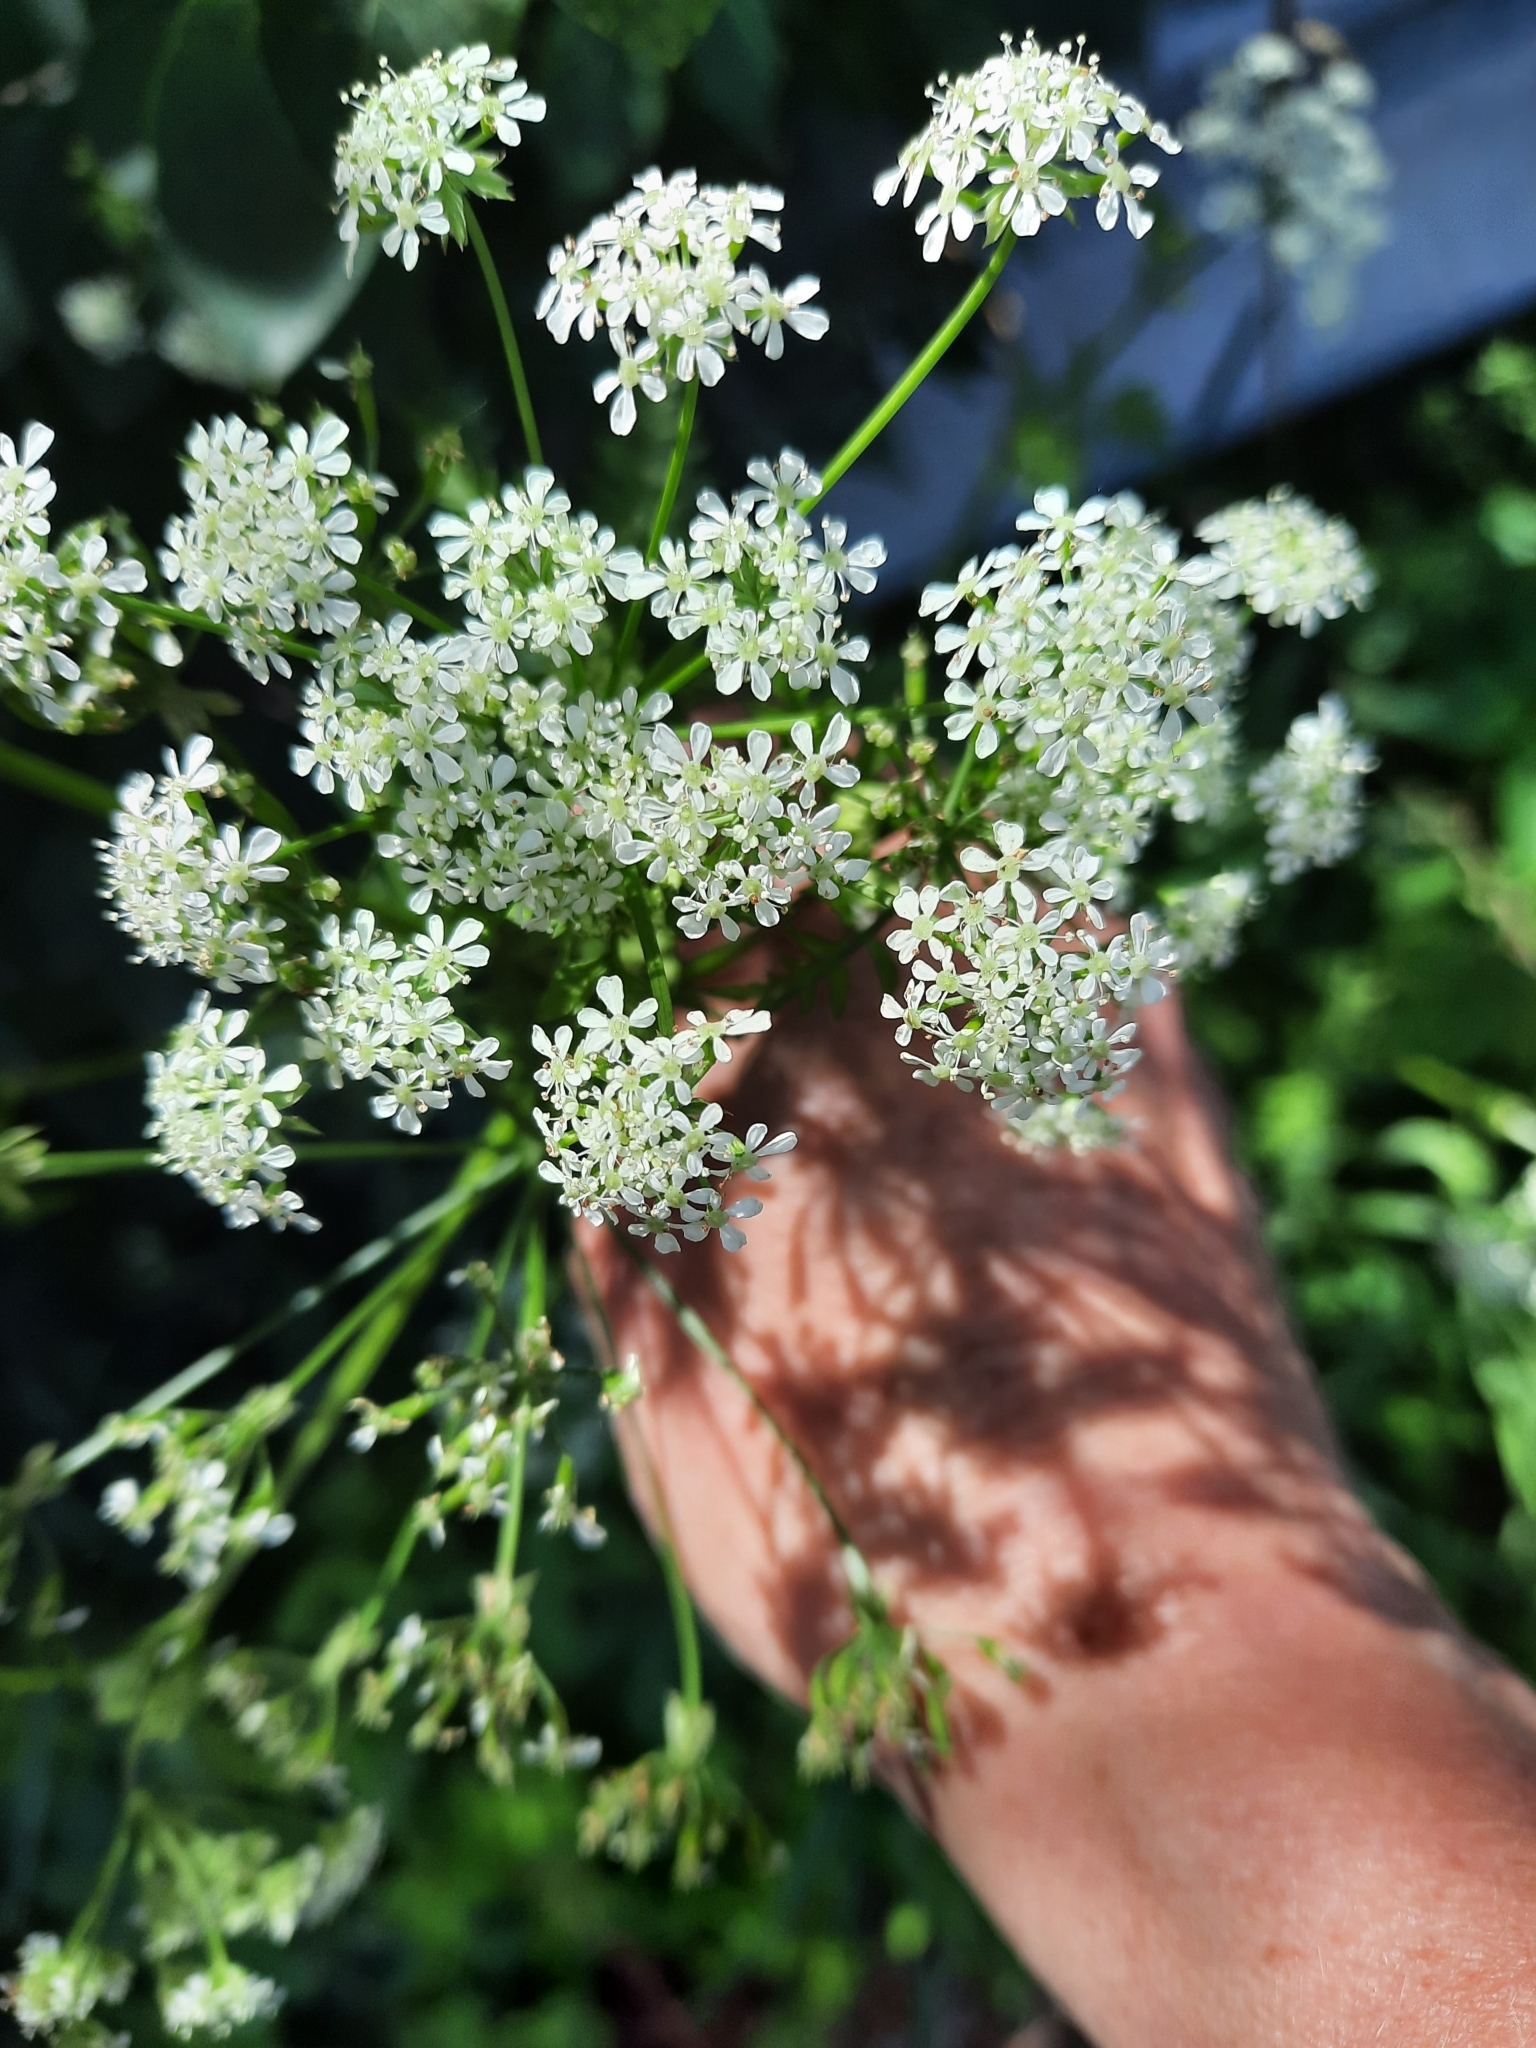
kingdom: Plantae
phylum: Tracheophyta
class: Magnoliopsida
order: Apiales
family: Apiaceae
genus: Anthriscus
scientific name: Anthriscus sylvestris
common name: Cow parsley
